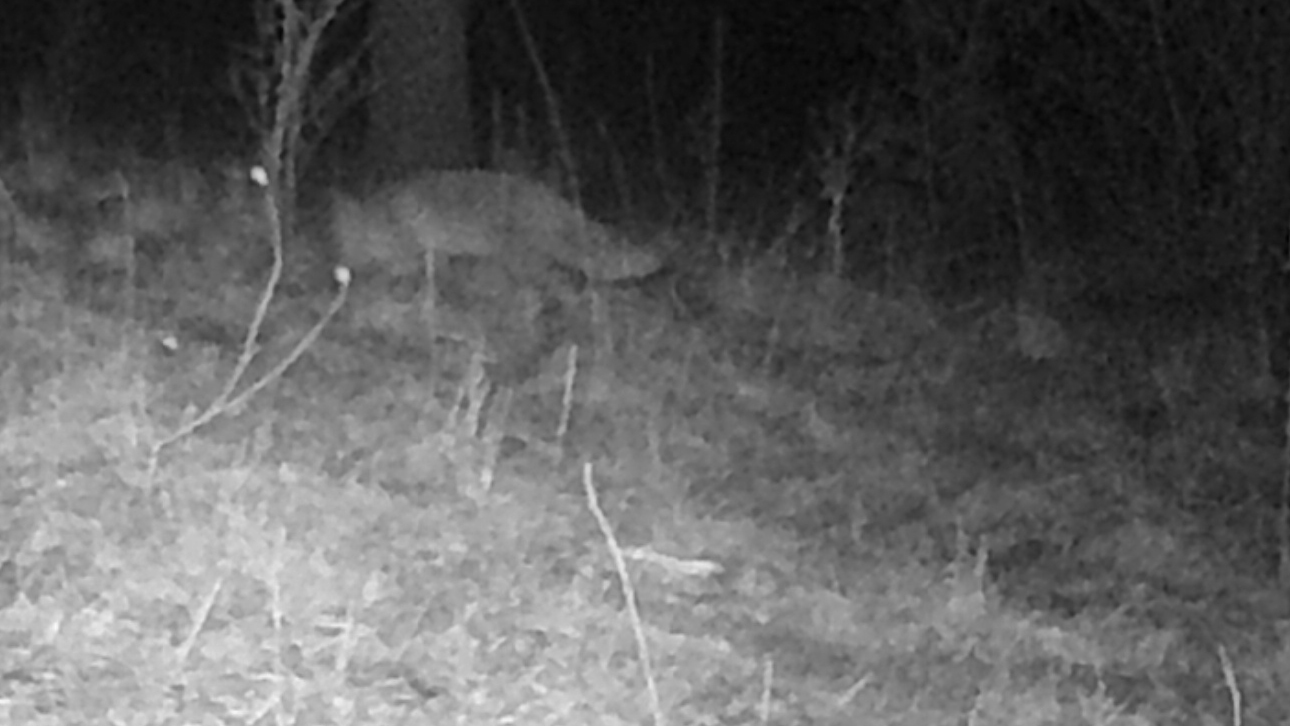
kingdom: Animalia
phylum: Chordata
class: Mammalia
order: Carnivora
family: Canidae
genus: Vulpes
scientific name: Vulpes vulpes
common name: Red fox
